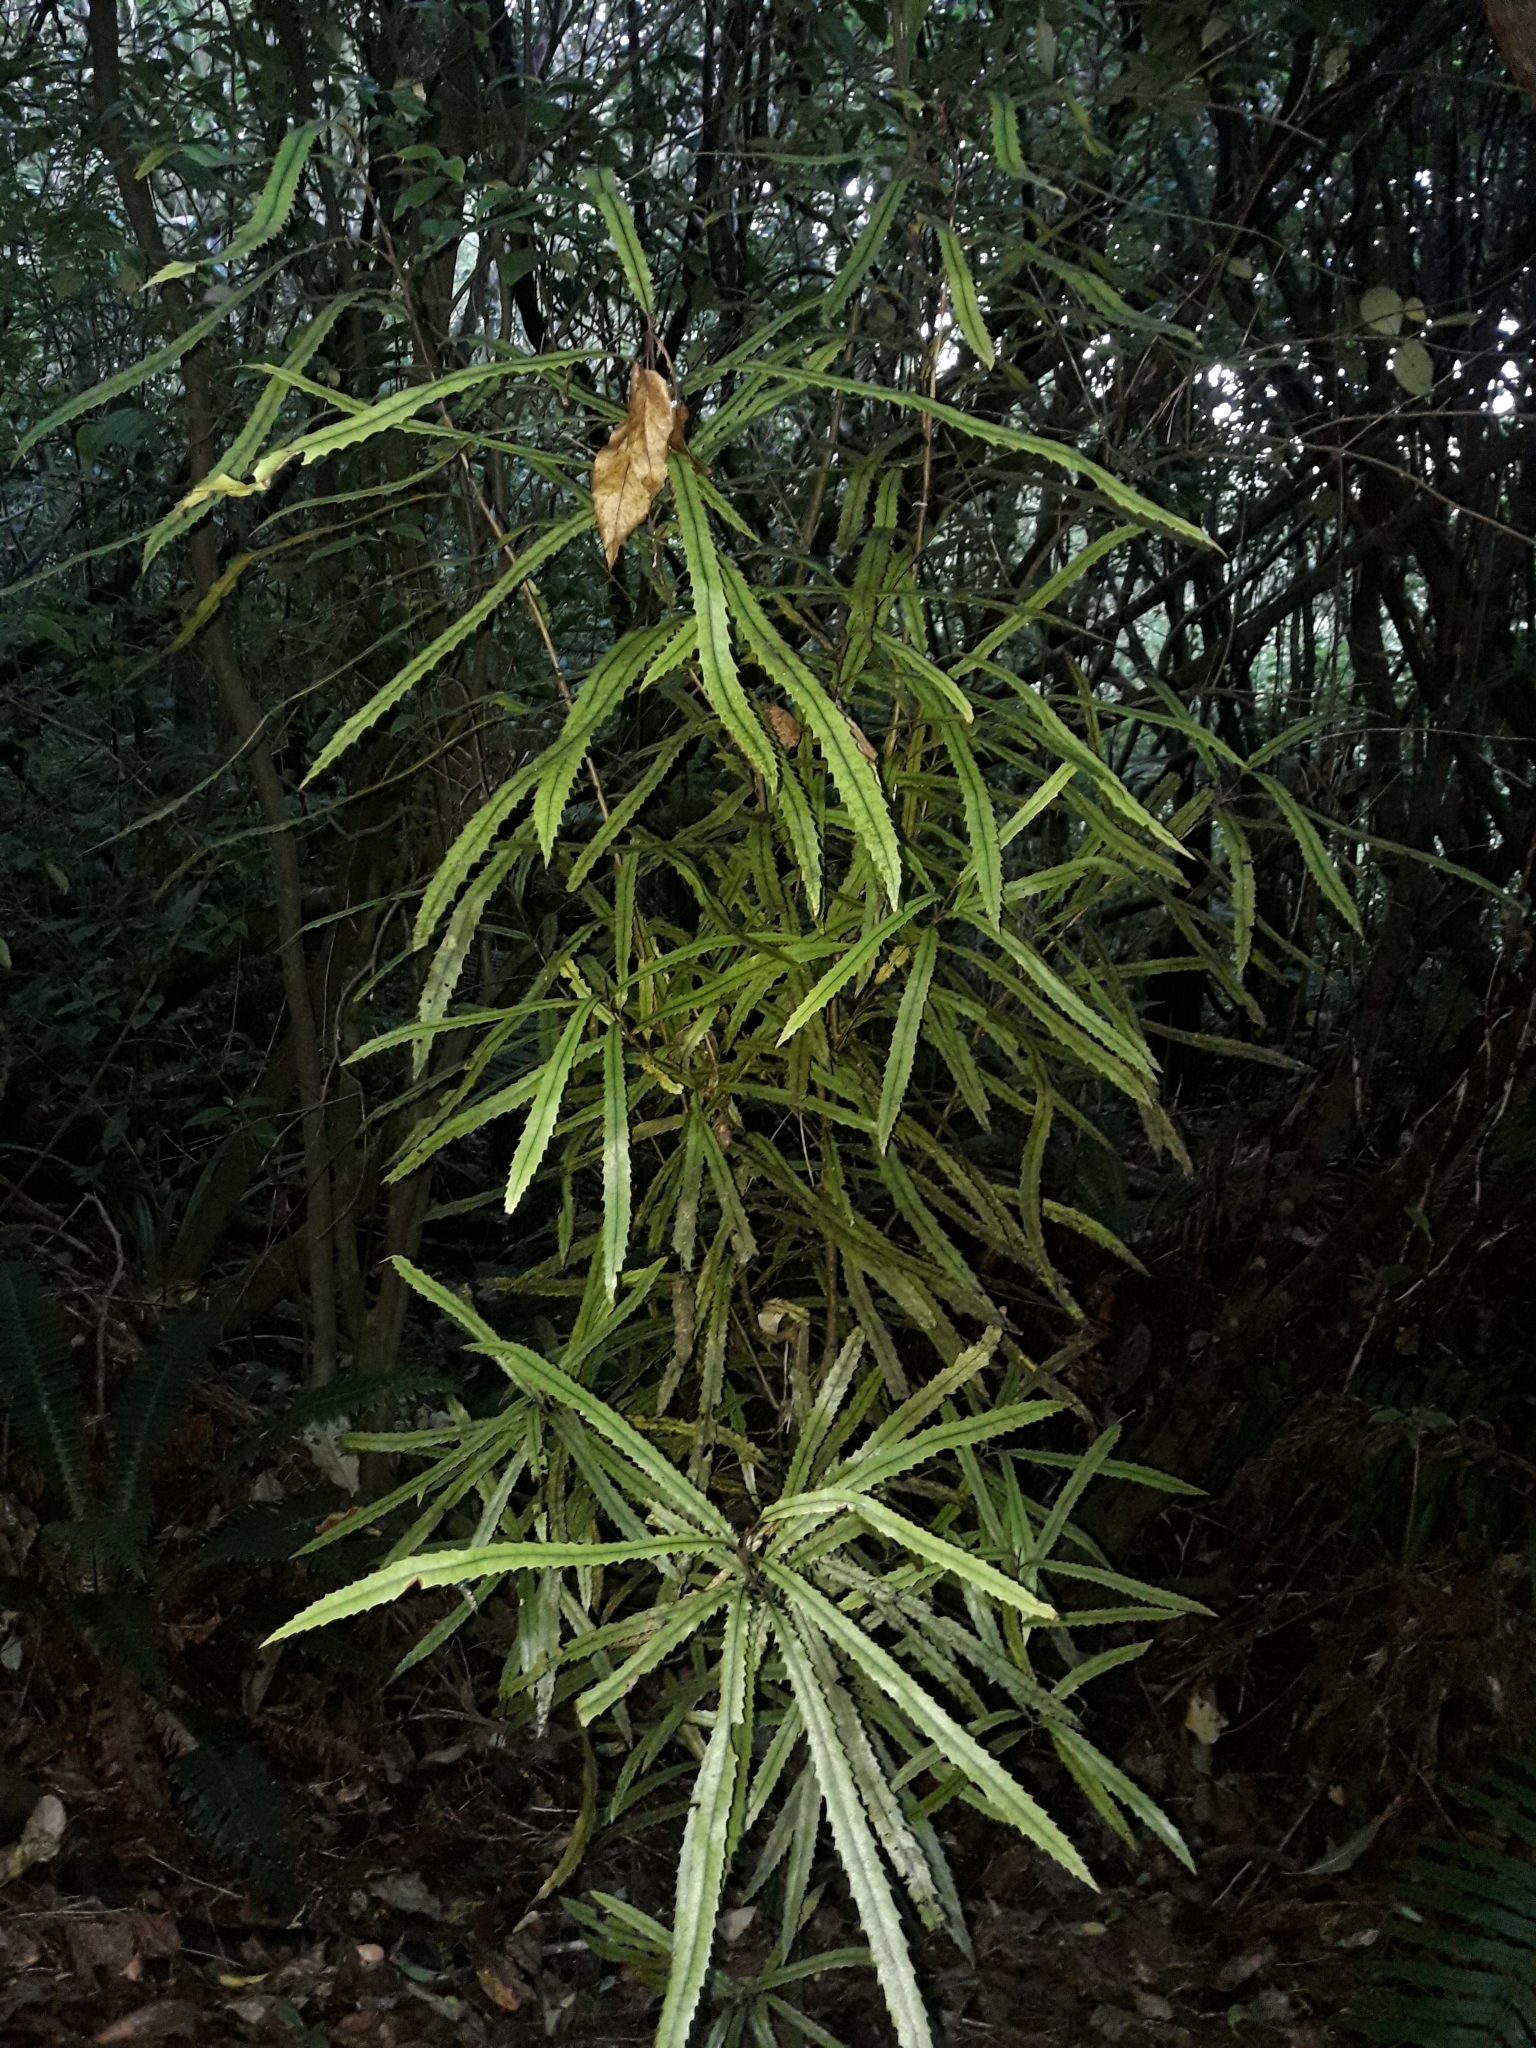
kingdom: Plantae
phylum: Tracheophyta
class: Magnoliopsida
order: Proteales
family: Proteaceae
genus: Knightia
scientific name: Knightia excelsa
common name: New zealand-honeysuckle
